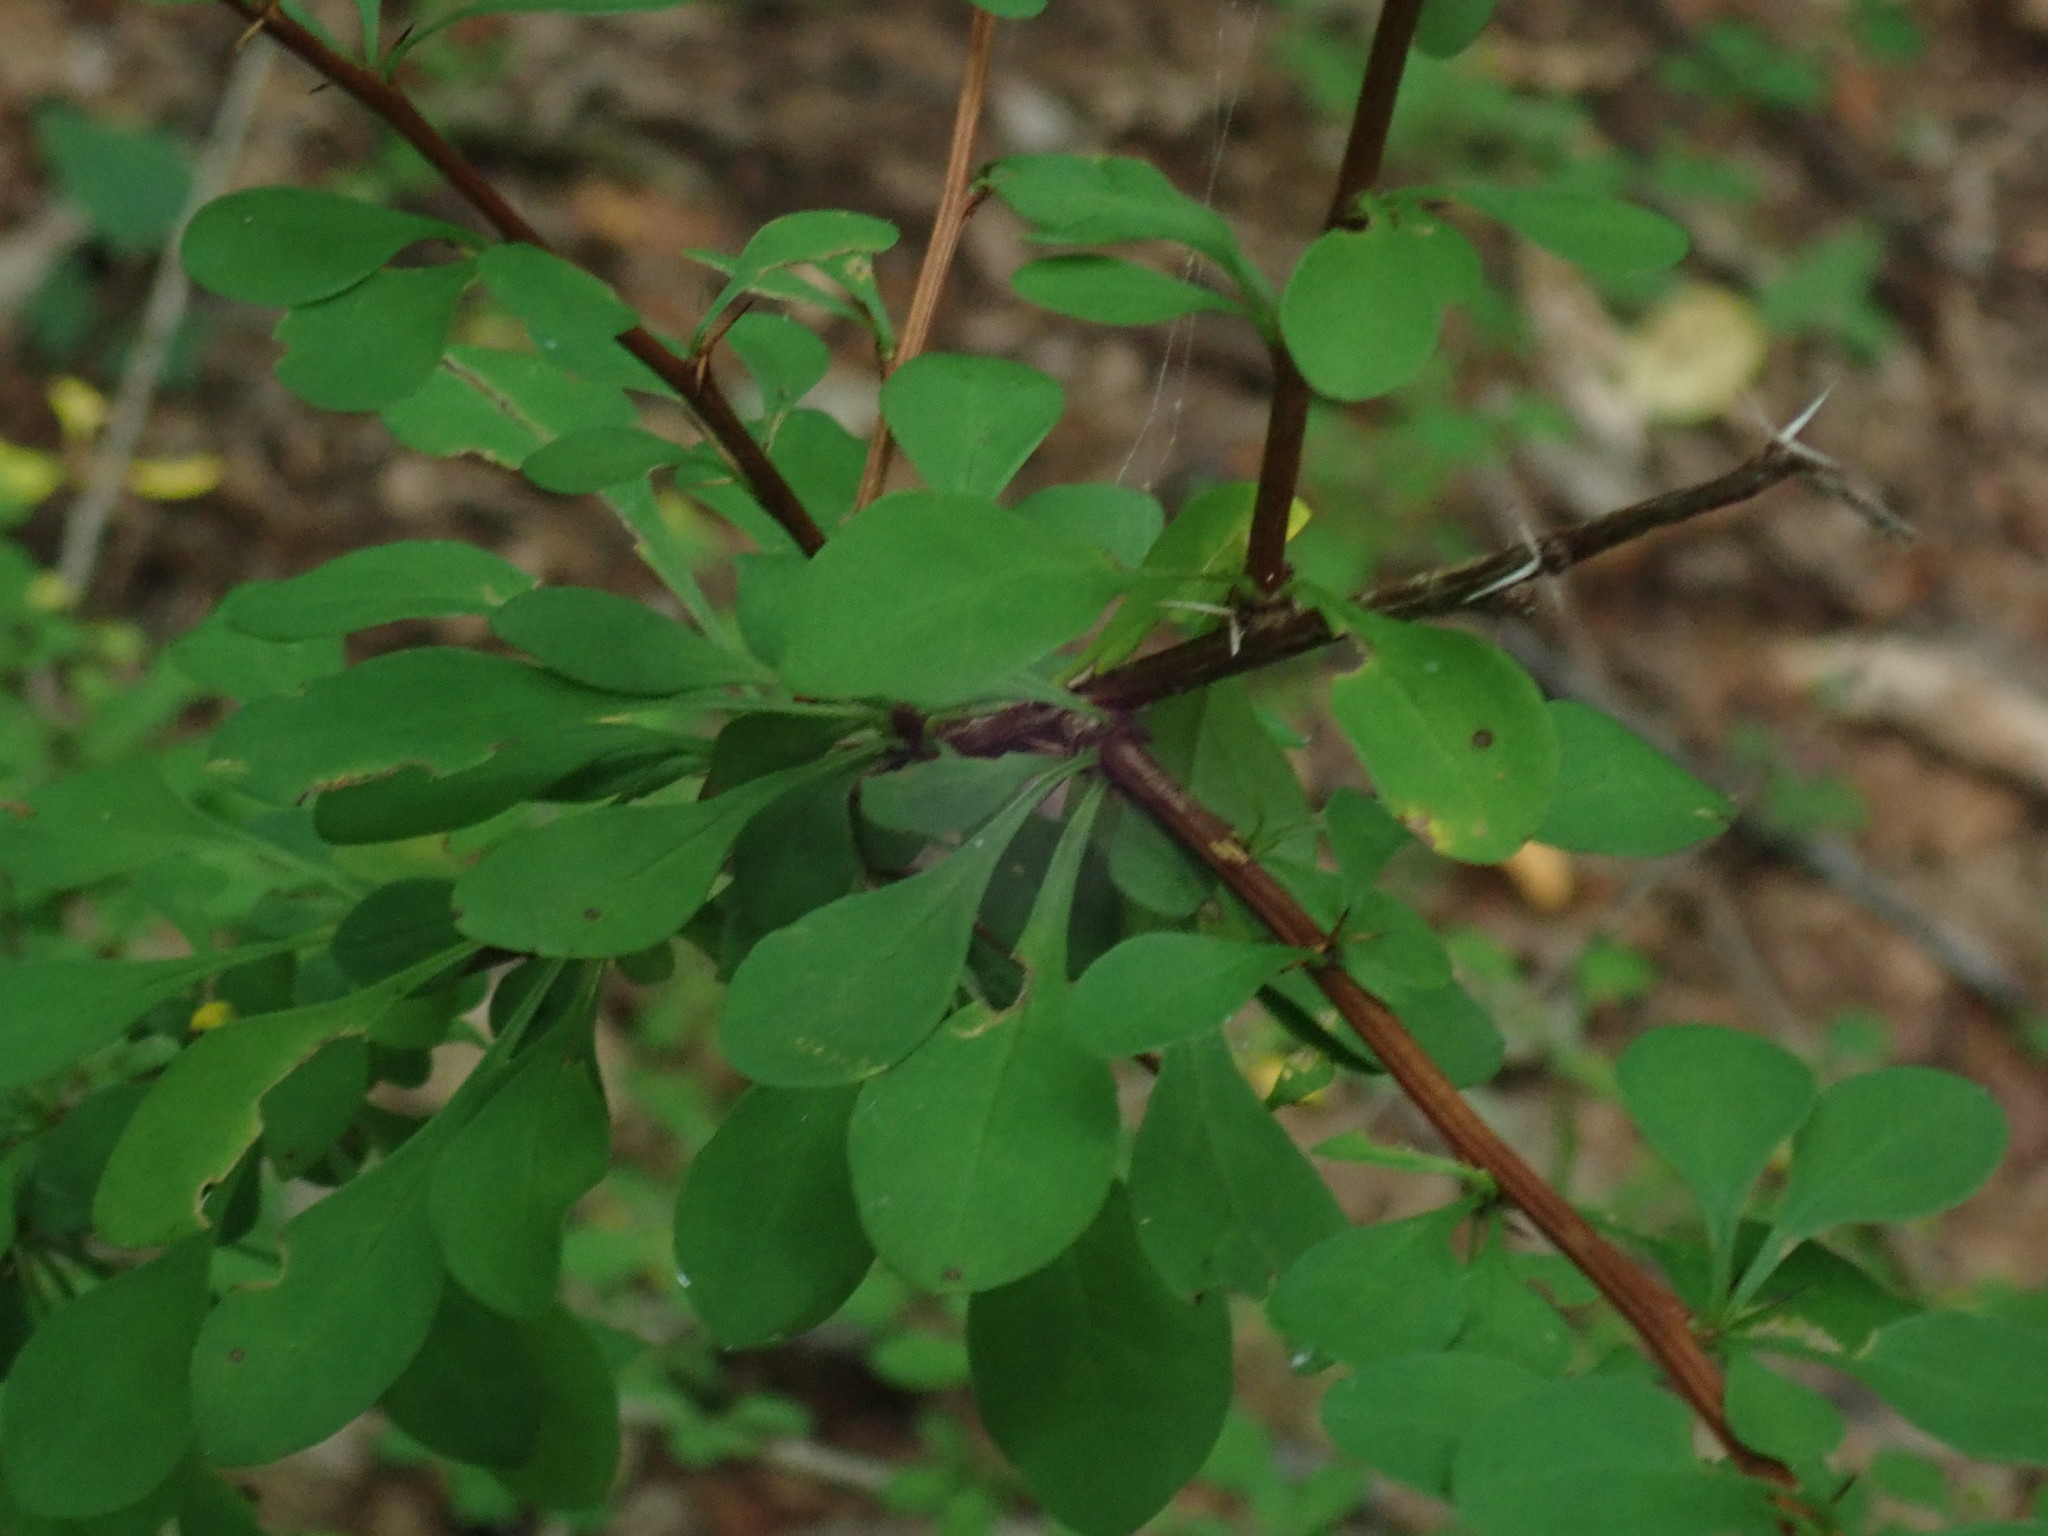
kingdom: Plantae
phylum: Tracheophyta
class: Magnoliopsida
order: Ranunculales
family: Berberidaceae
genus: Berberis
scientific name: Berberis ottawensis
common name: Ottawa barberry
